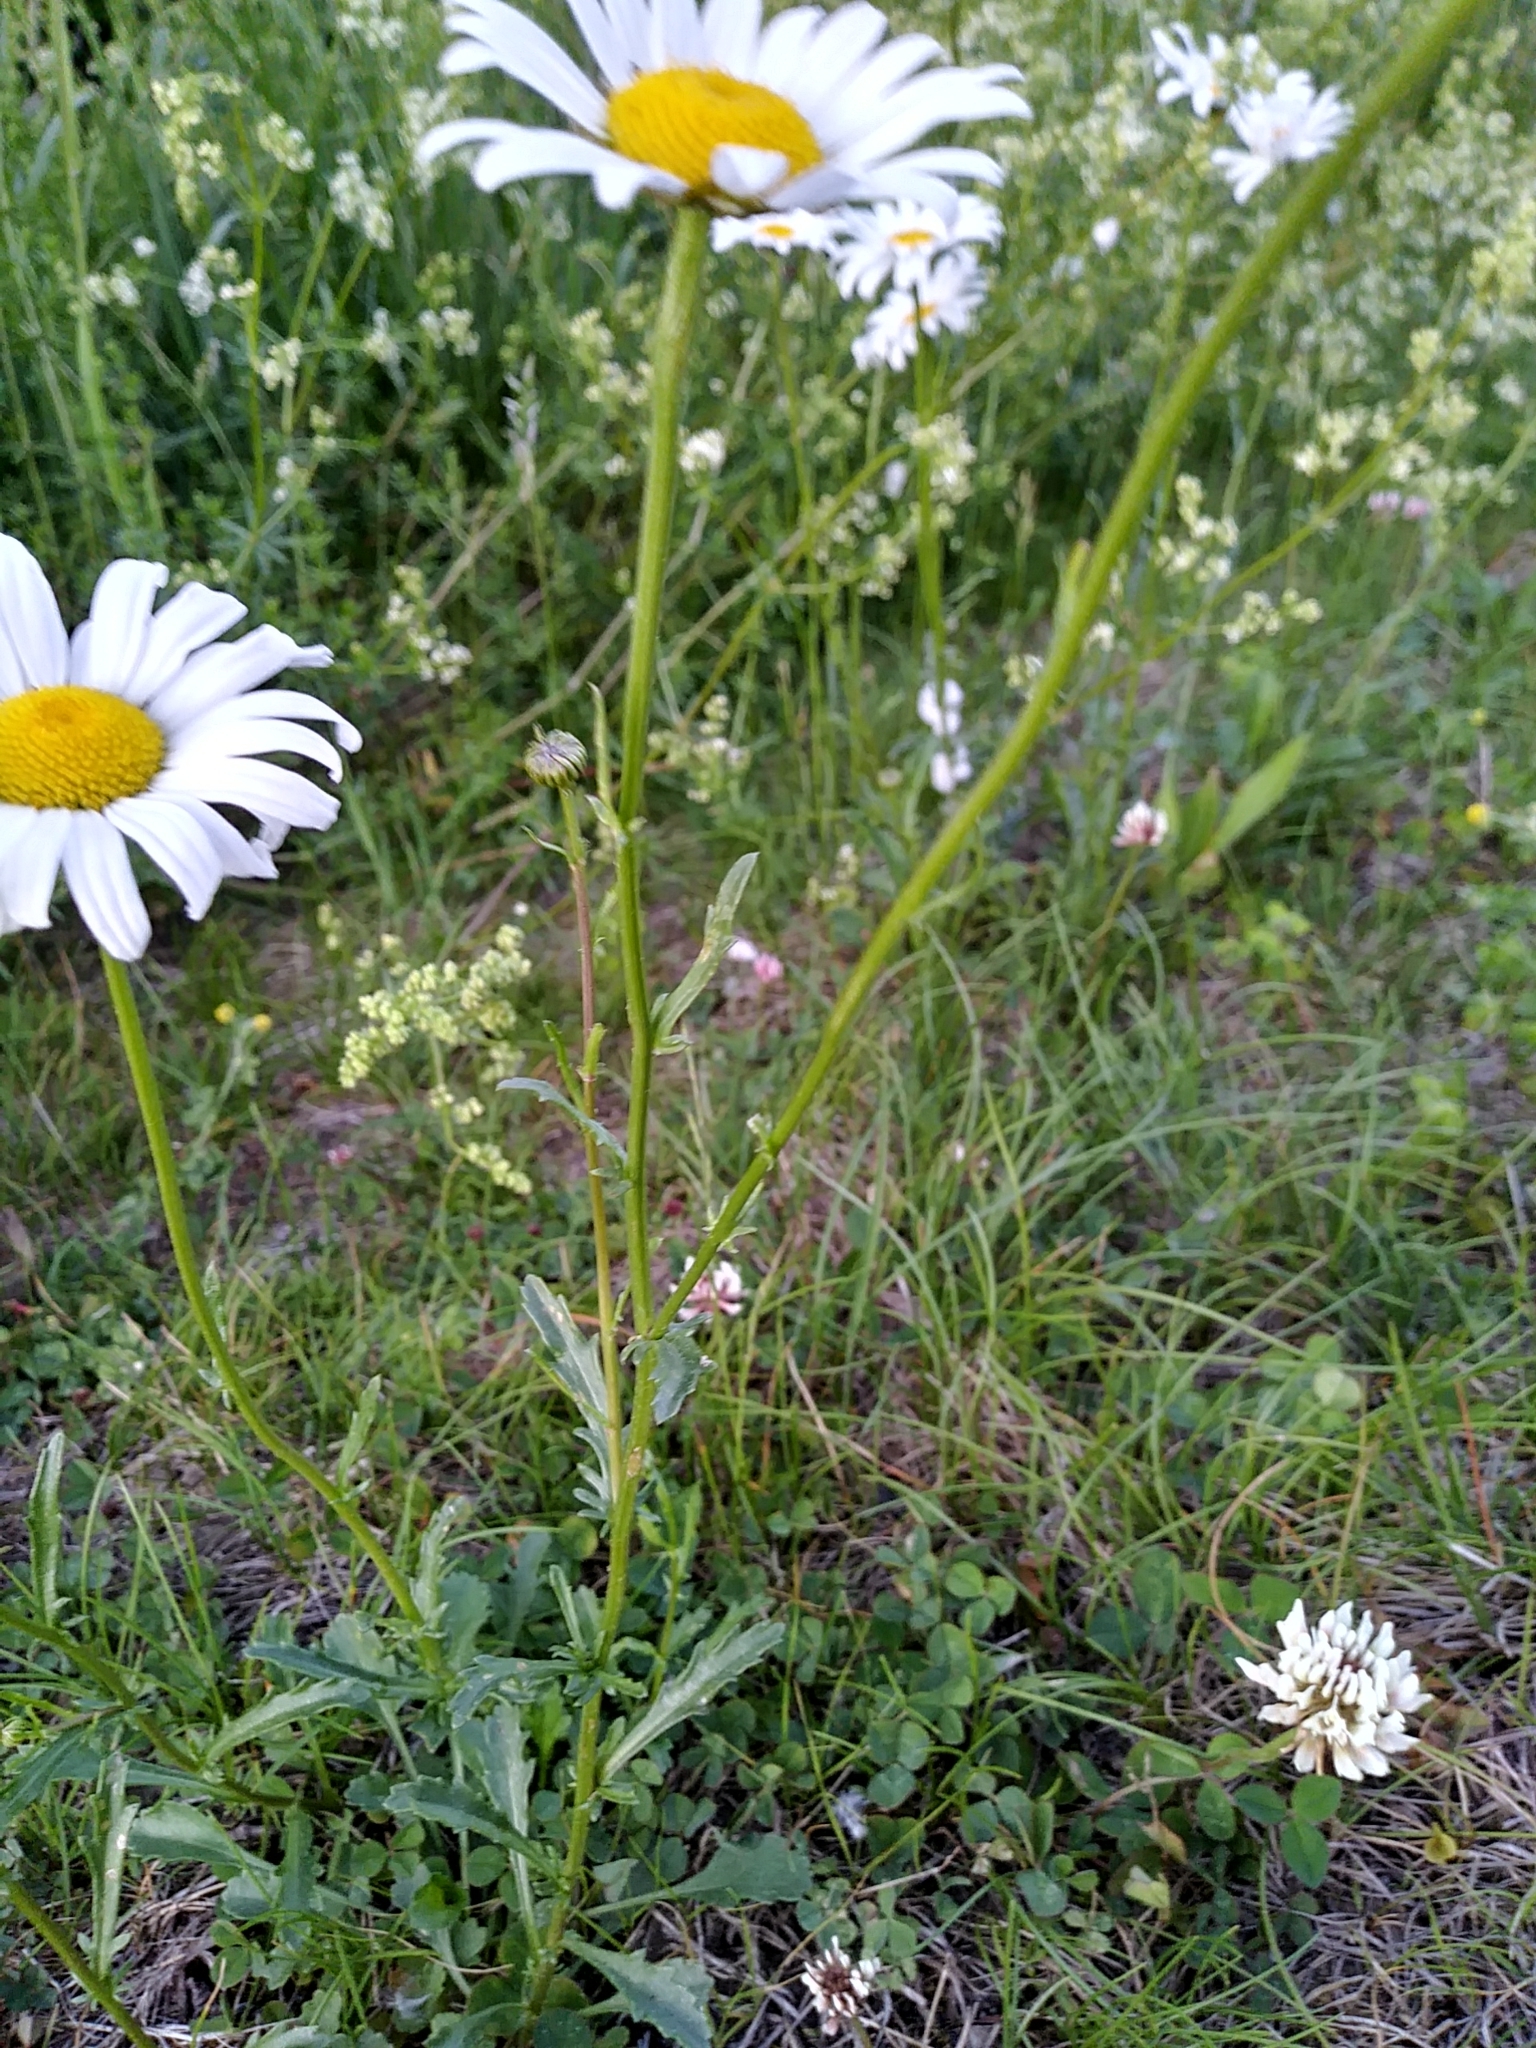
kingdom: Plantae
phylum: Tracheophyta
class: Magnoliopsida
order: Asterales
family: Asteraceae
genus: Leucanthemum
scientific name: Leucanthemum vulgare
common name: Oxeye daisy
